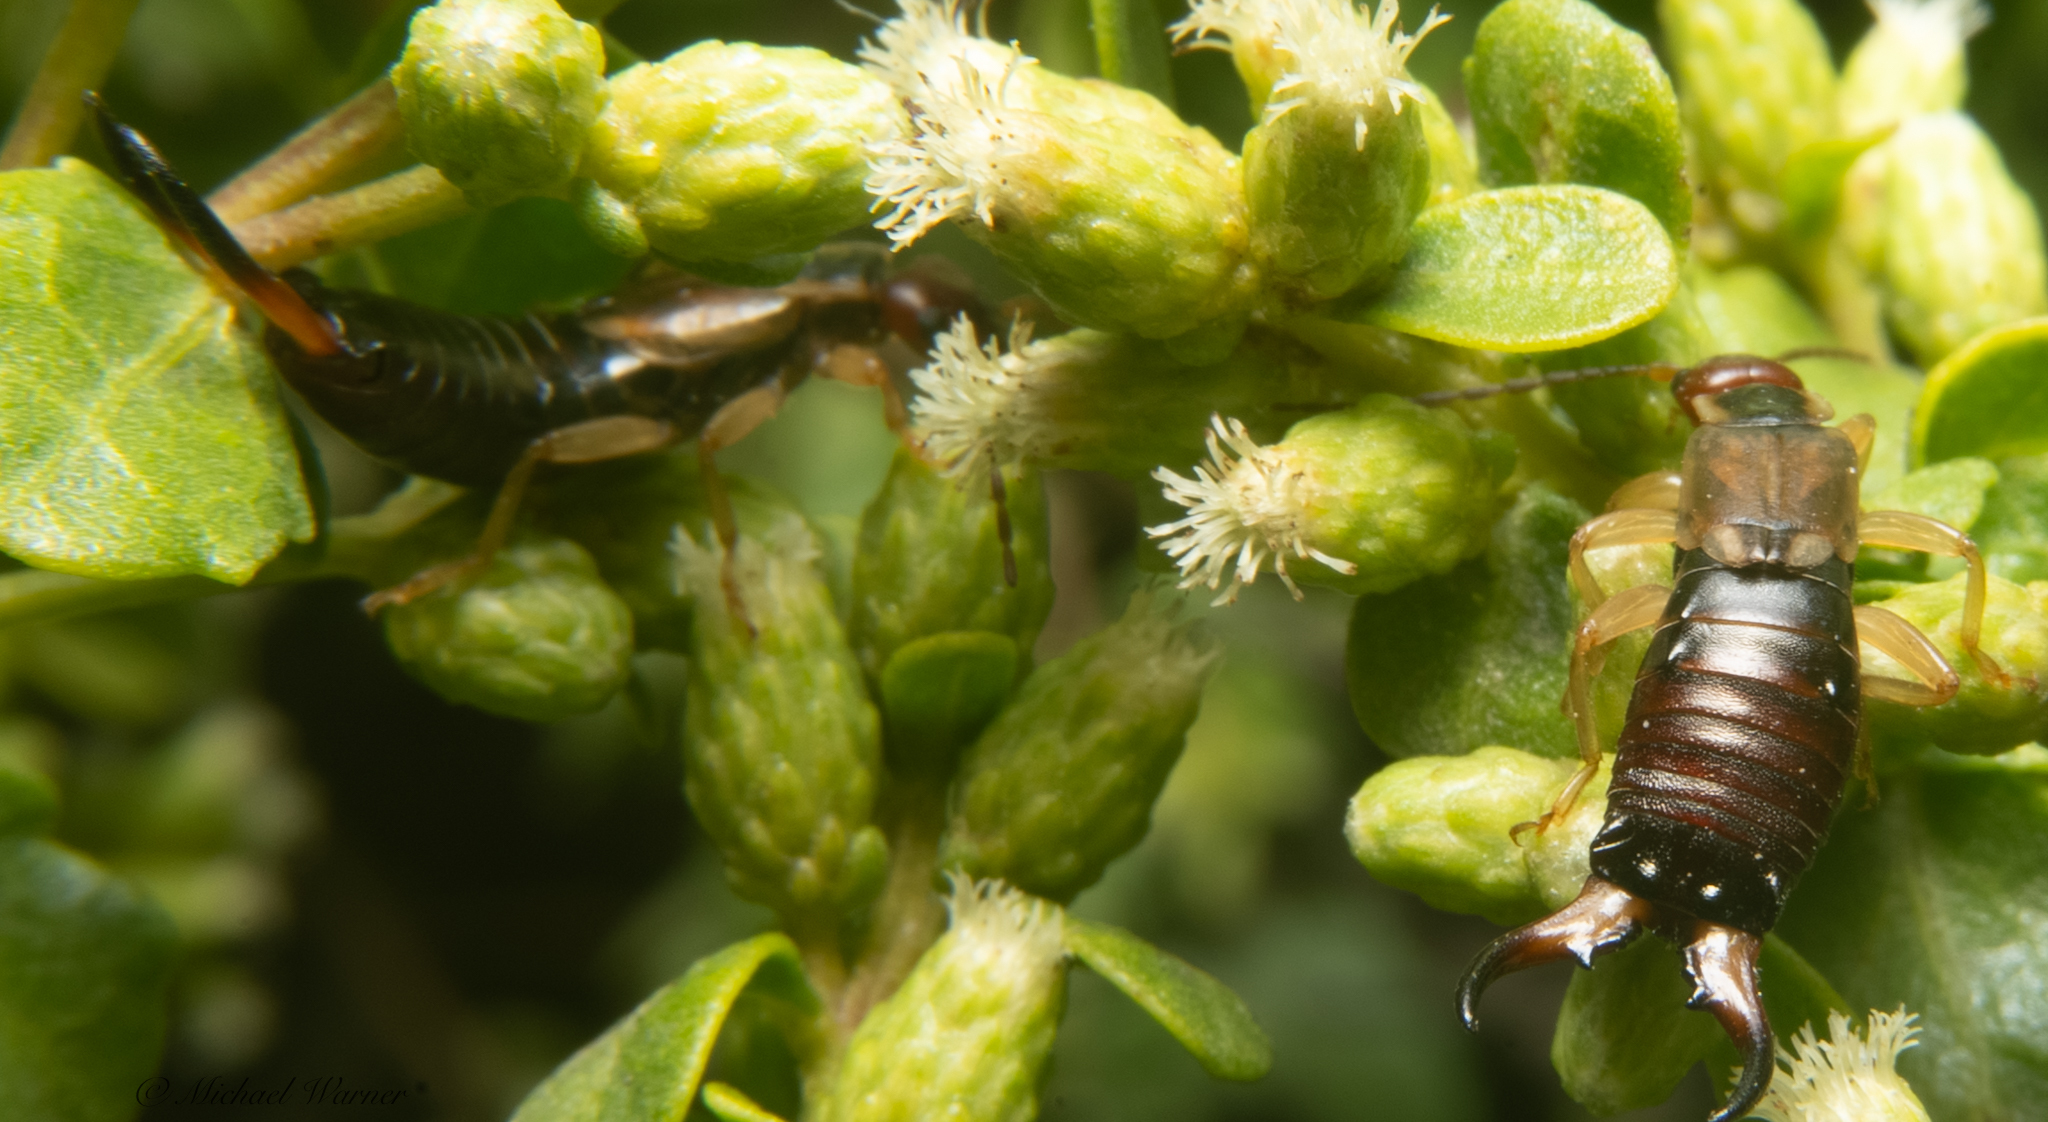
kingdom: Animalia
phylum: Arthropoda
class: Insecta
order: Dermaptera
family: Forficulidae
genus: Forficula
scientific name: Forficula dentata
